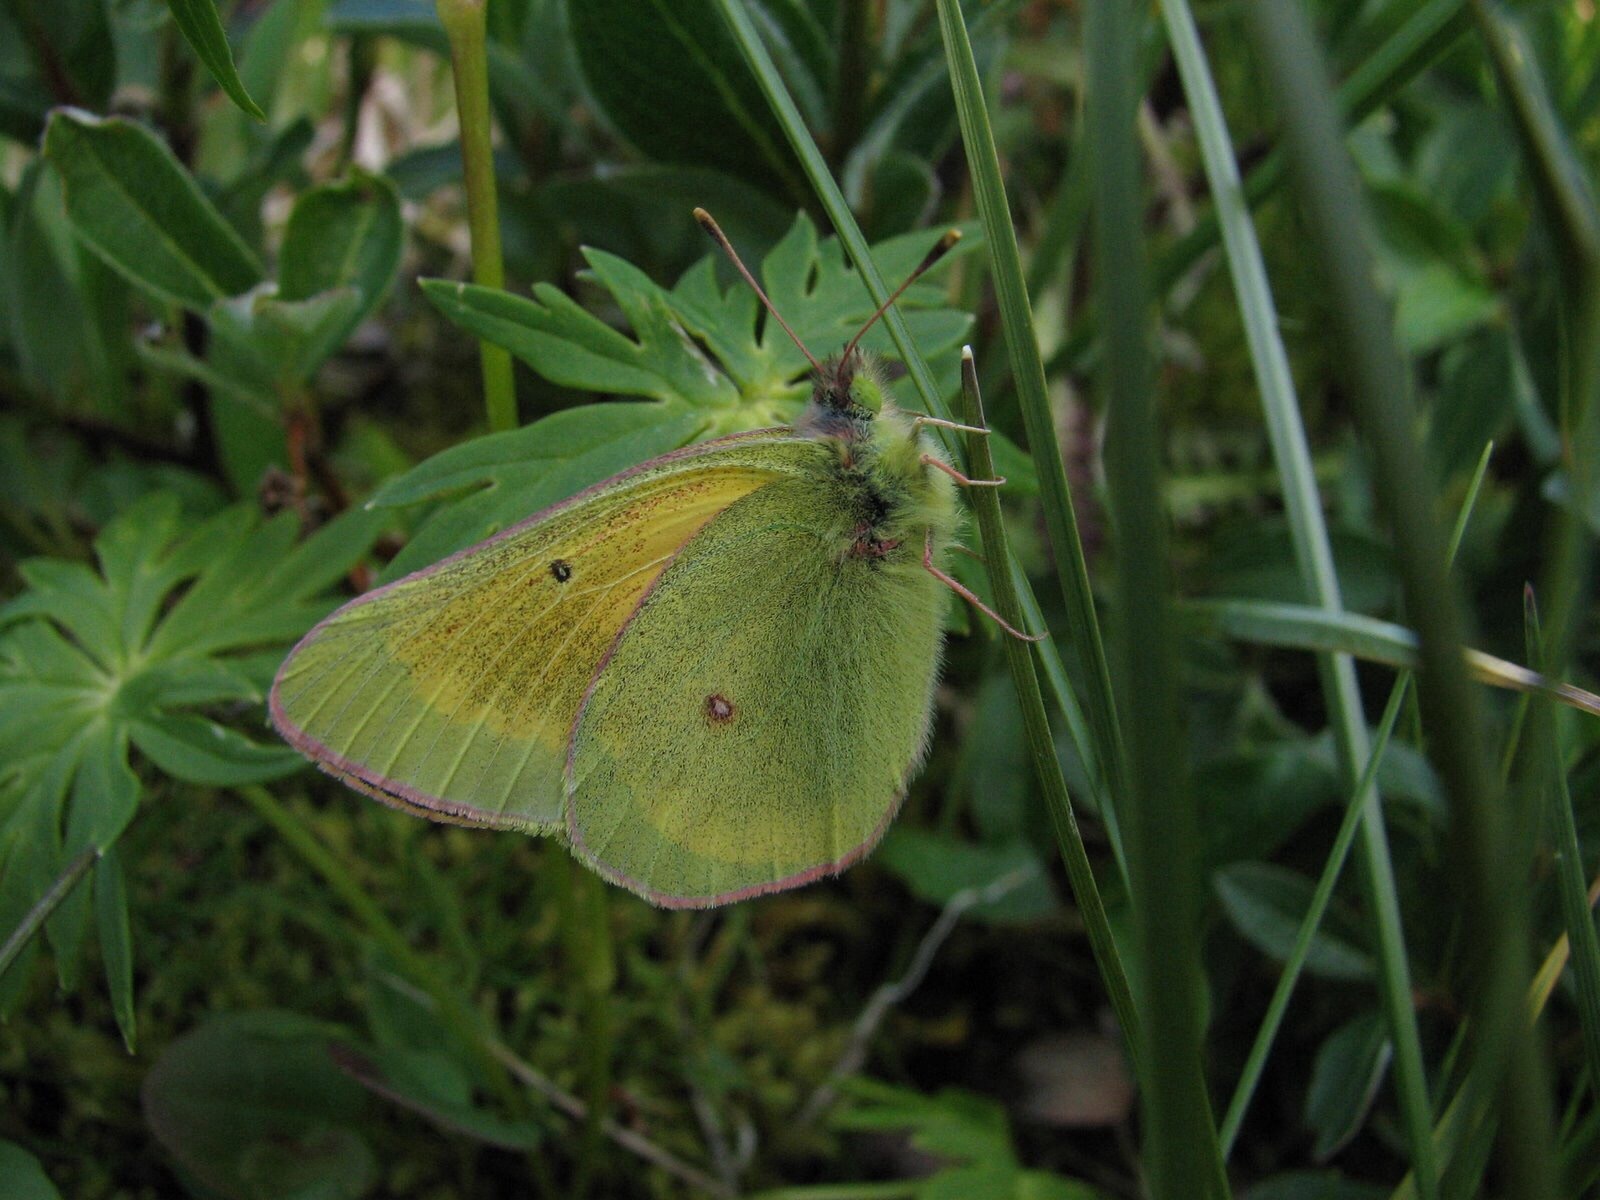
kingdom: Animalia
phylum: Arthropoda
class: Insecta
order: Lepidoptera
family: Pieridae
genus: Colias
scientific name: Colias
